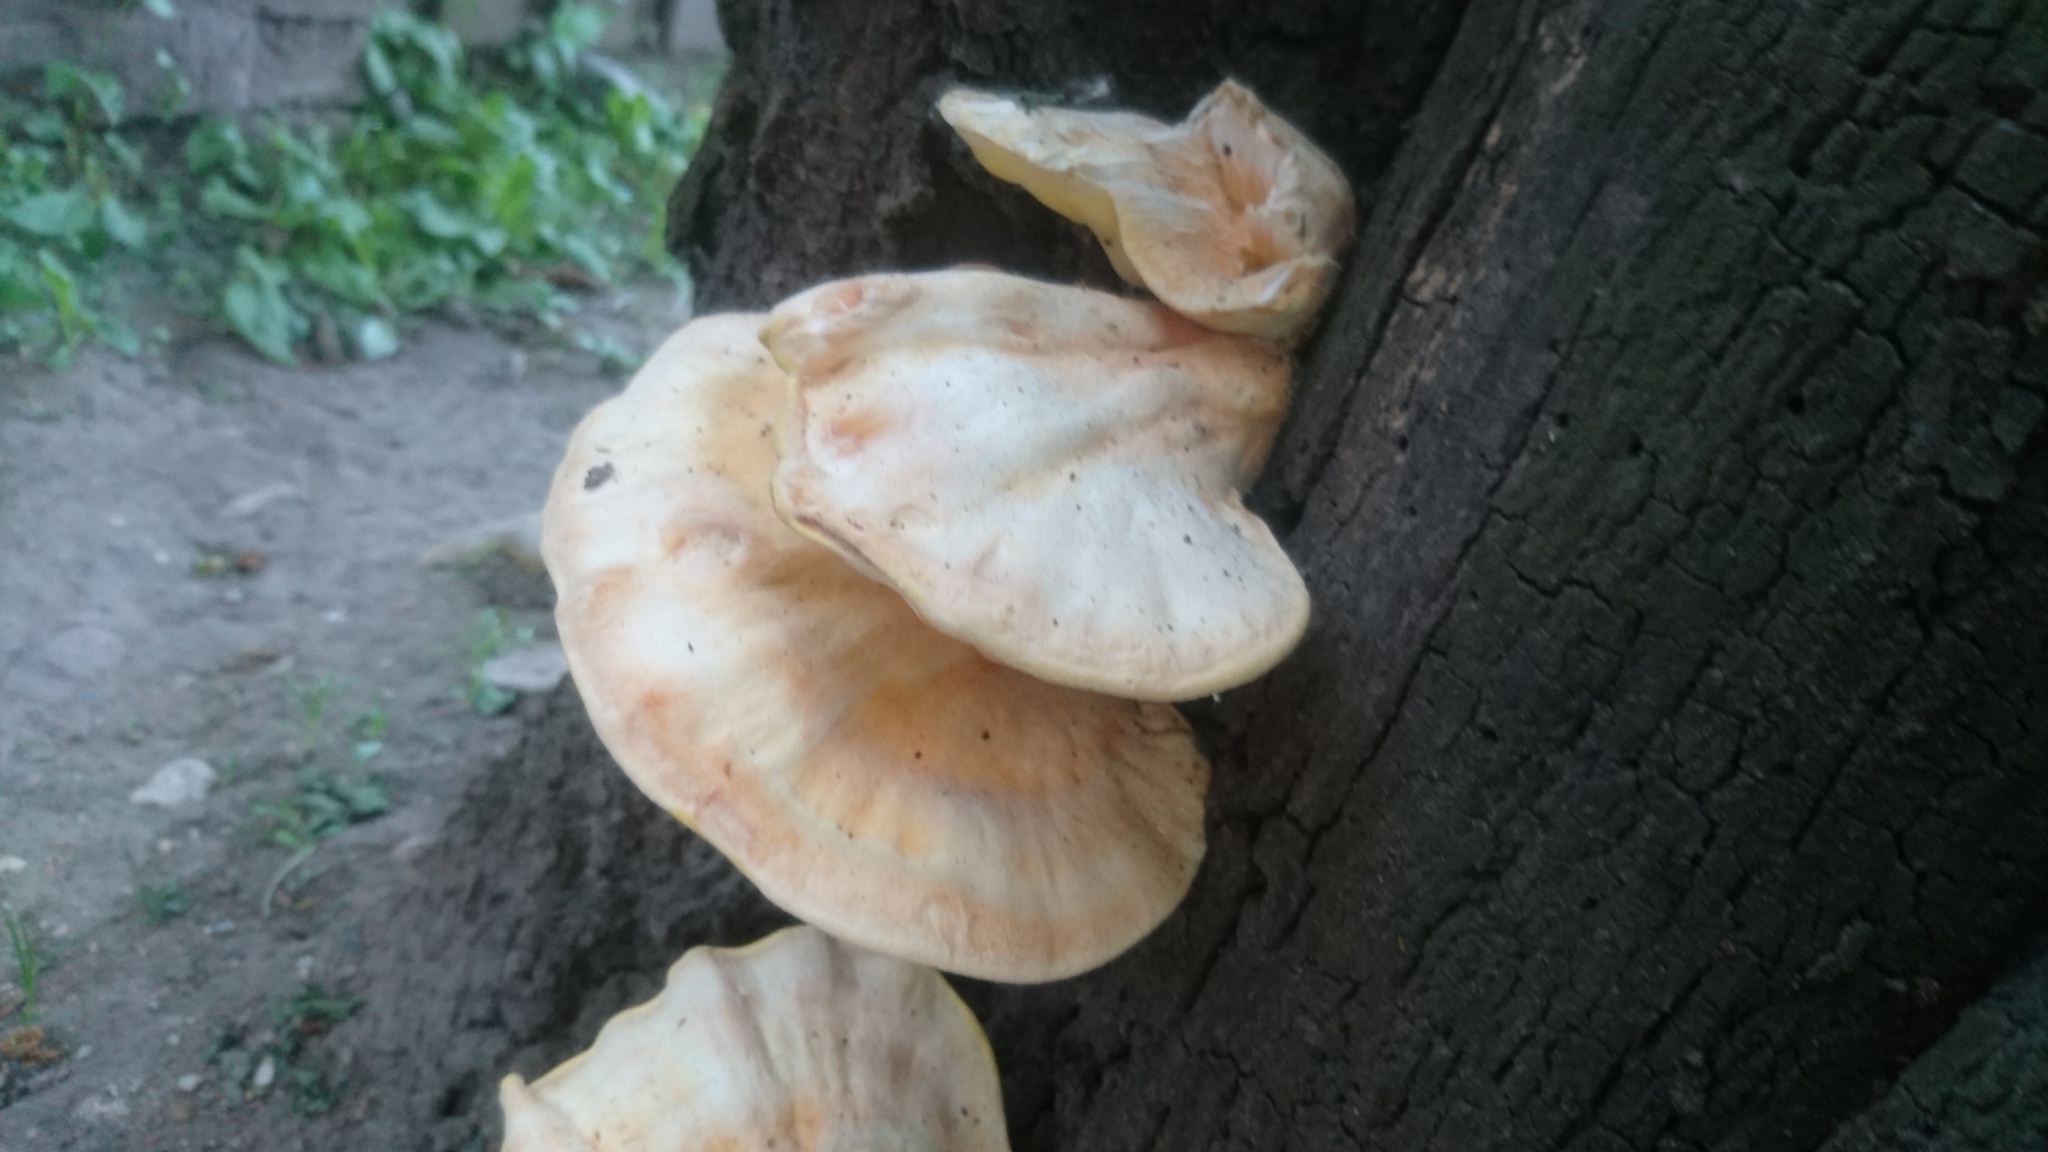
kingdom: Fungi
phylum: Basidiomycota
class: Agaricomycetes
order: Polyporales
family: Laetiporaceae
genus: Laetiporus
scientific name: Laetiporus sulphureus
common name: Chicken of the woods
